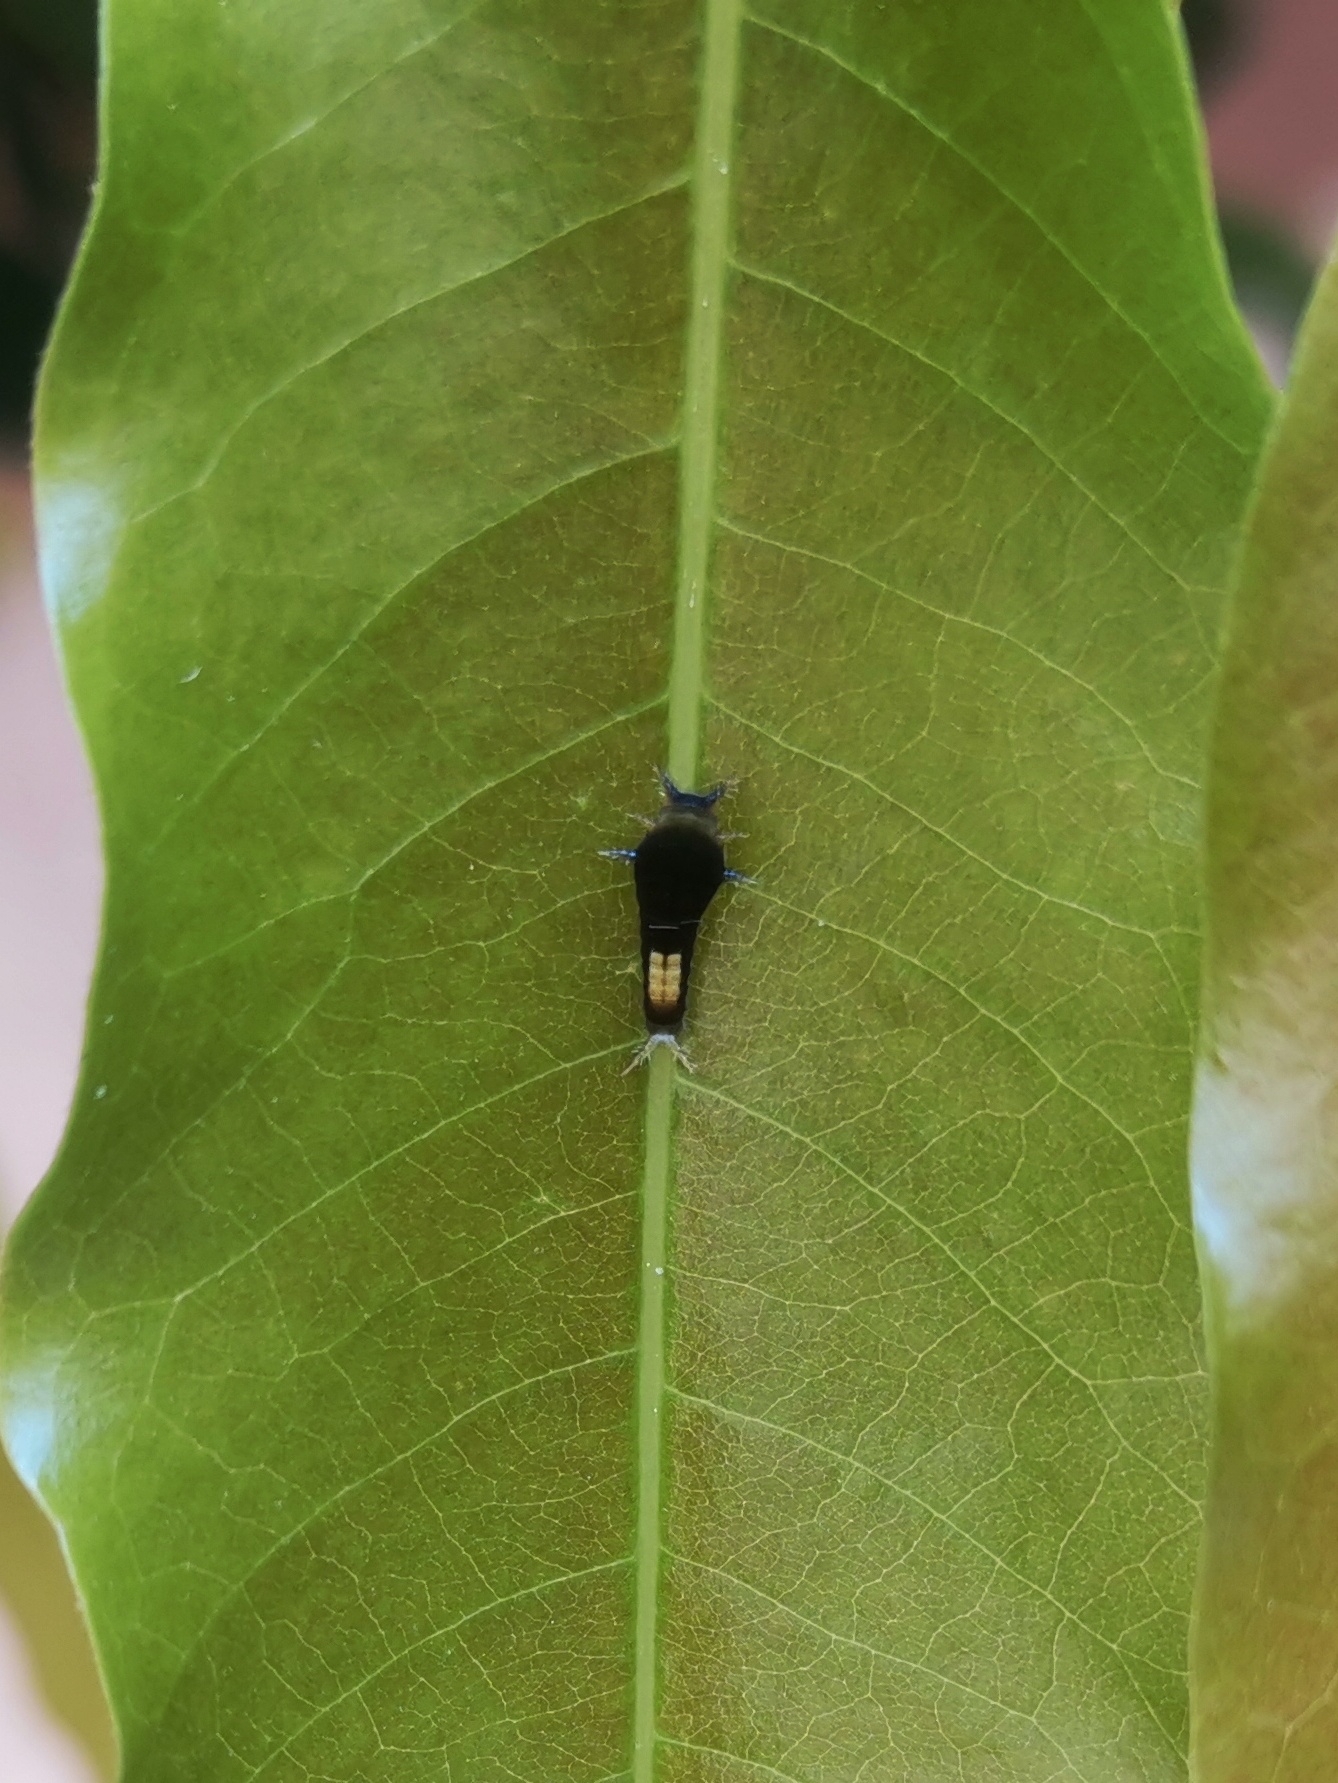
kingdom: Animalia
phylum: Arthropoda
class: Insecta
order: Lepidoptera
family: Papilionidae
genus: Graphium
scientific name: Graphium agamemnon
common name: Tailed jay
